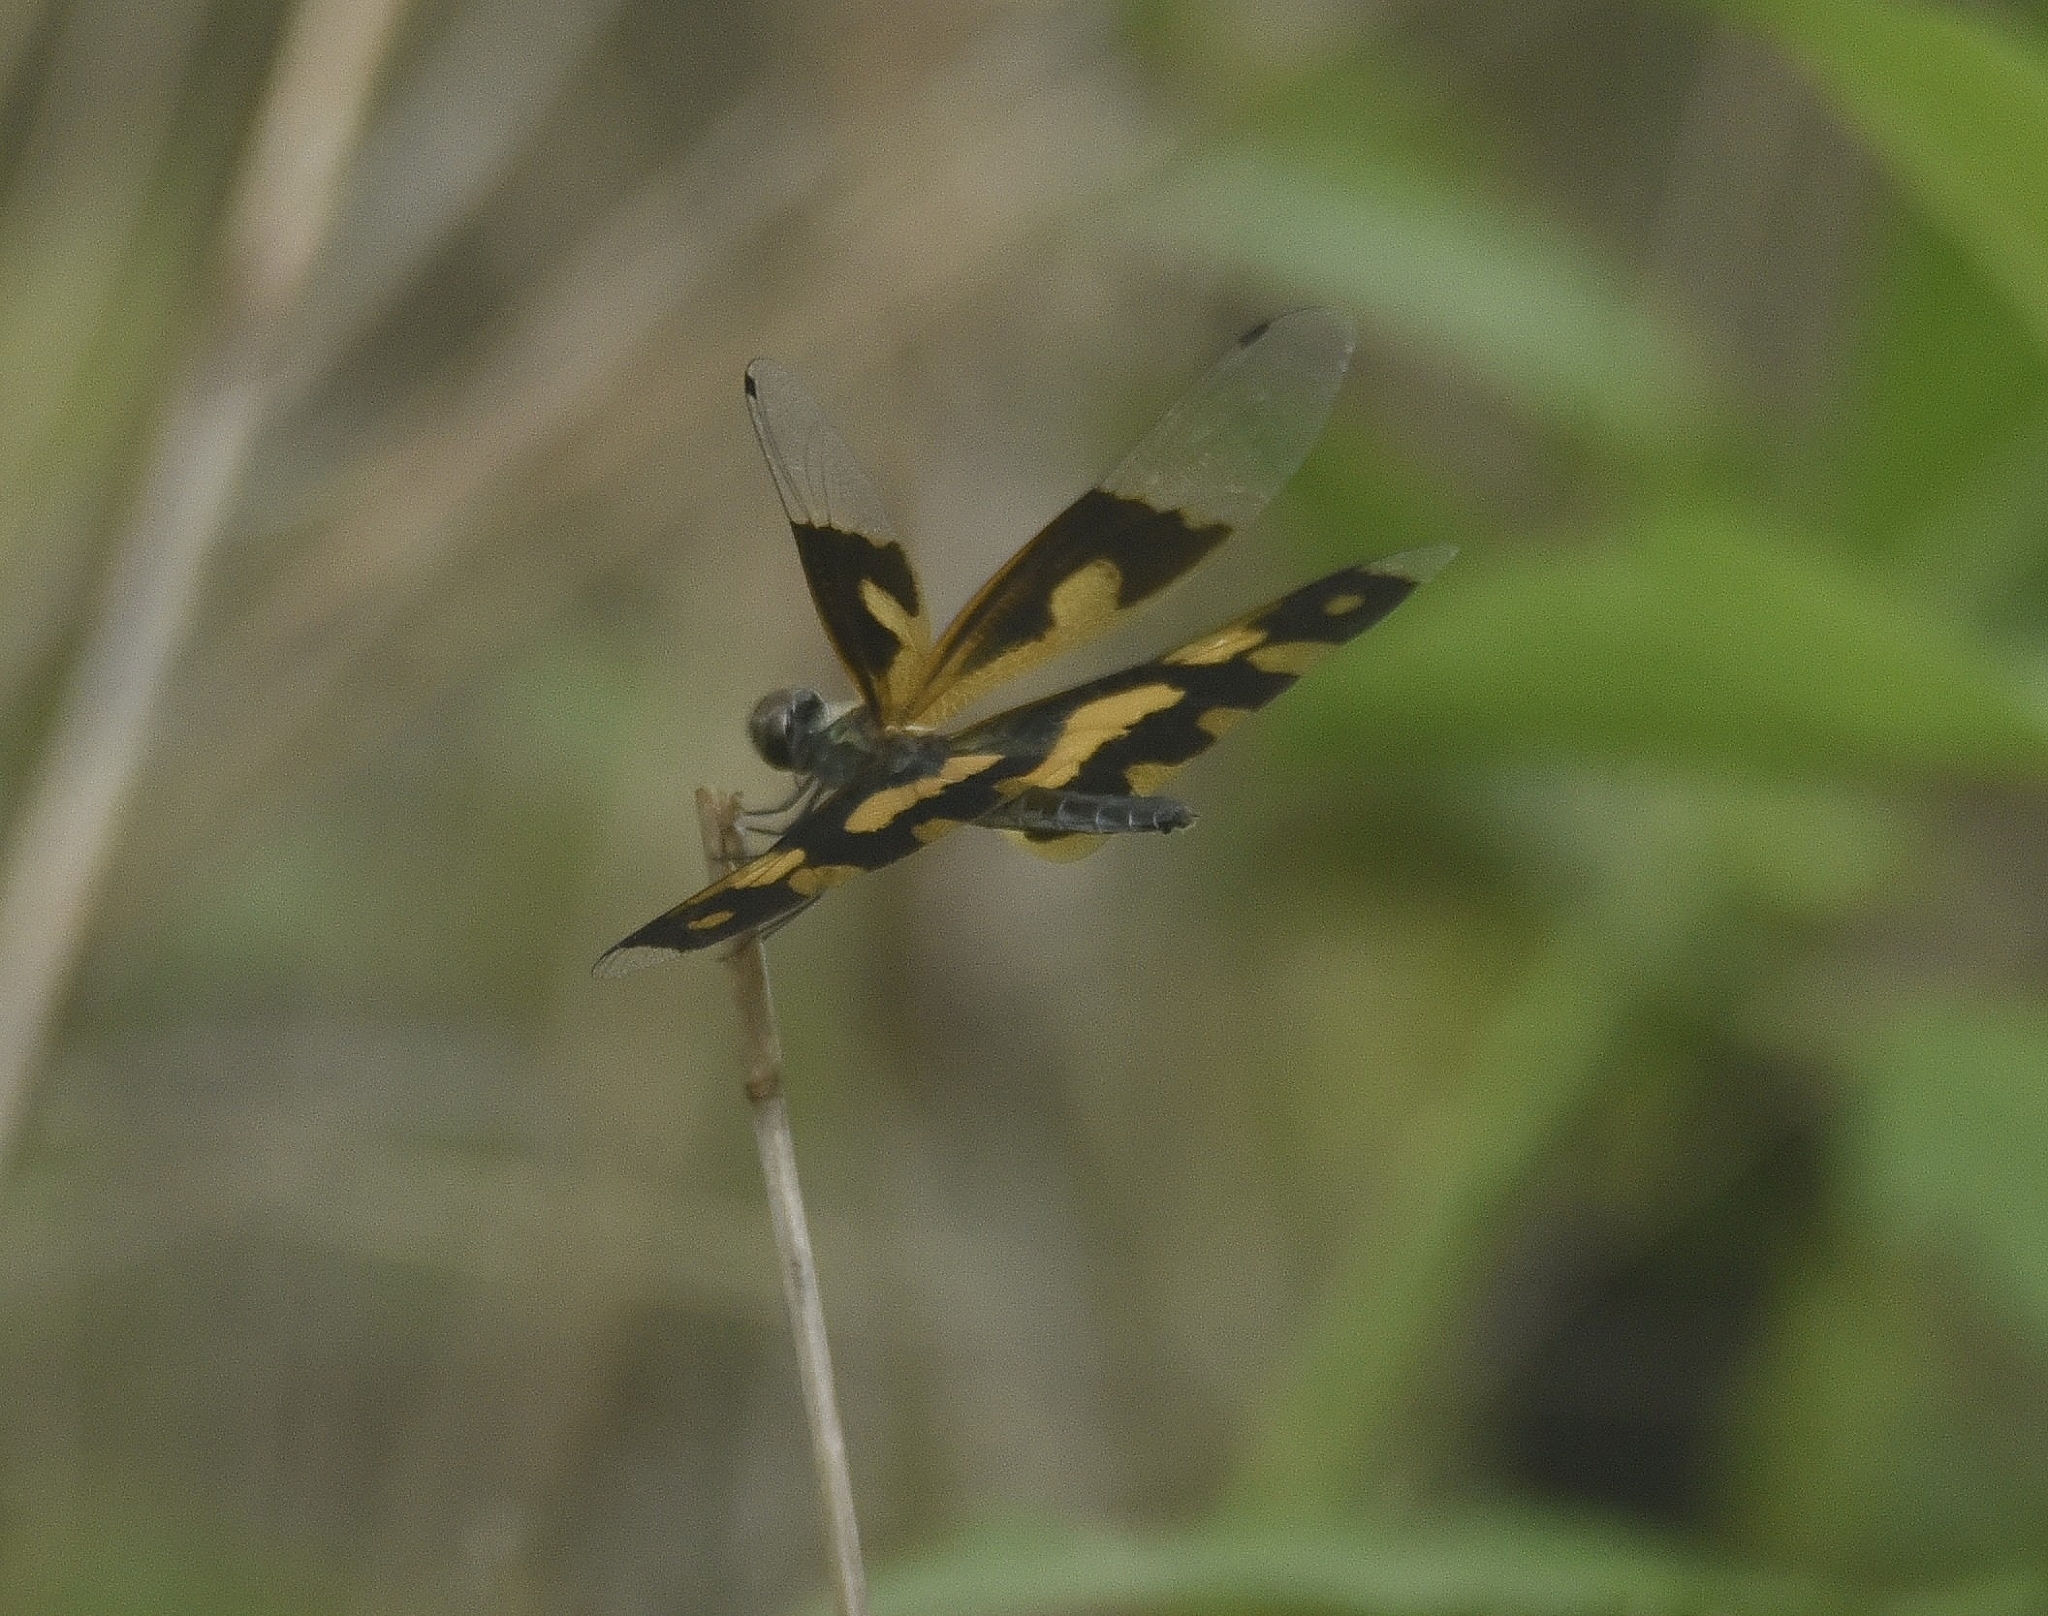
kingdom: Animalia
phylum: Arthropoda
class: Insecta
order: Odonata
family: Libellulidae
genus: Rhyothemis
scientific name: Rhyothemis variegata
